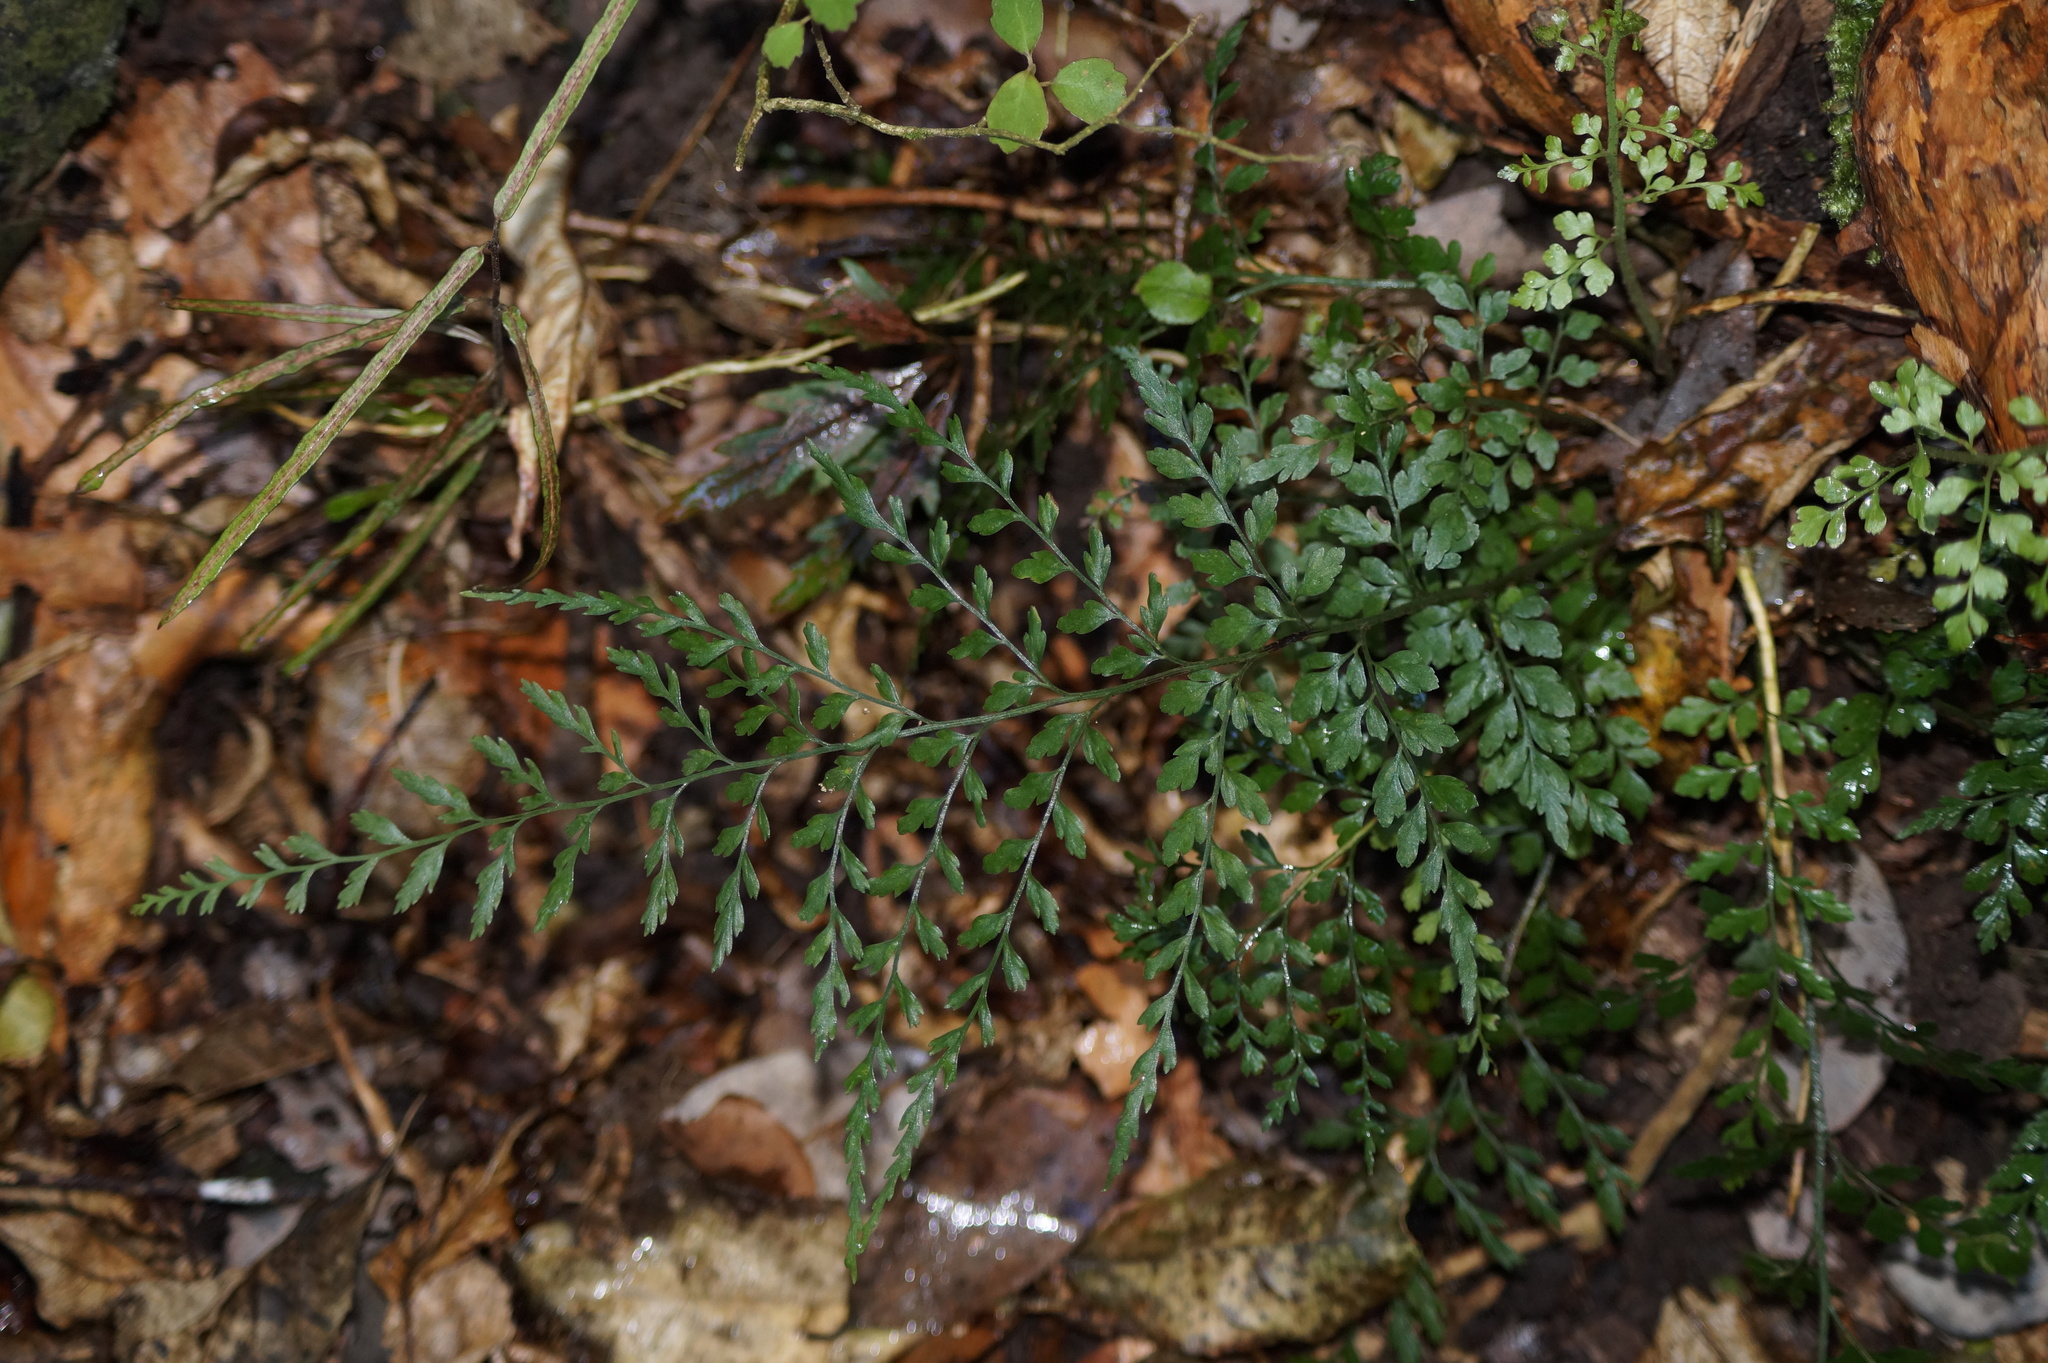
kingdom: Plantae
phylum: Tracheophyta
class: Polypodiopsida
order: Polypodiales
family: Aspleniaceae
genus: Asplenium
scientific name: Asplenium hookerianum
